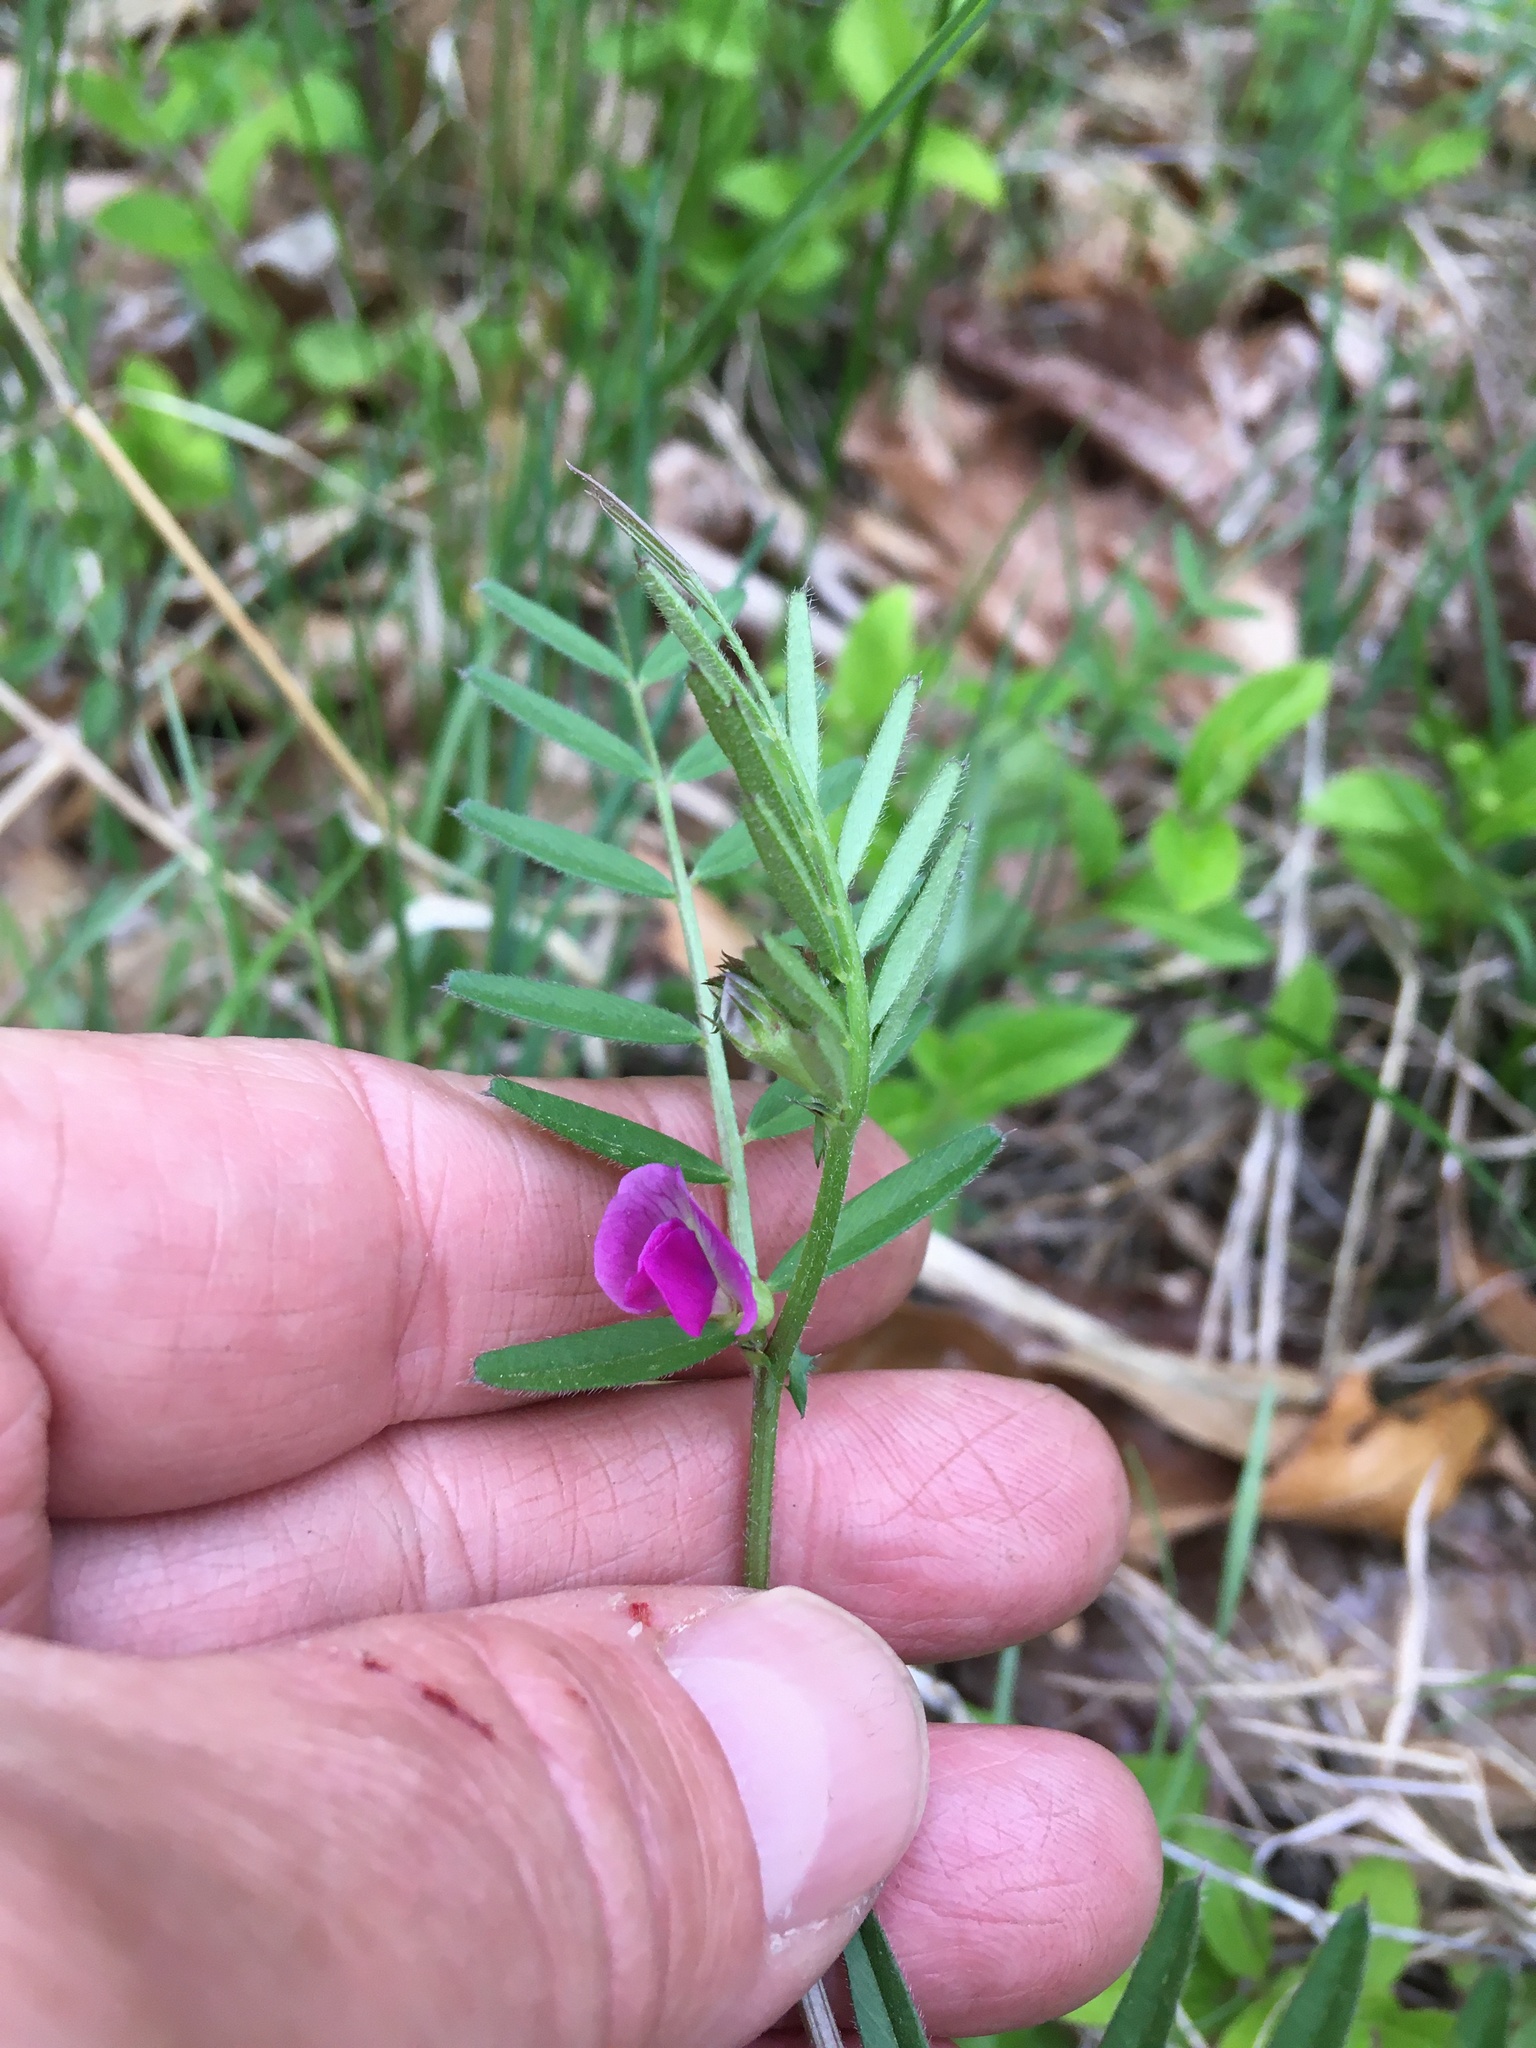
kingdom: Plantae
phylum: Tracheophyta
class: Magnoliopsida
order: Fabales
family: Fabaceae
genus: Vicia
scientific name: Vicia sativa
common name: Garden vetch
